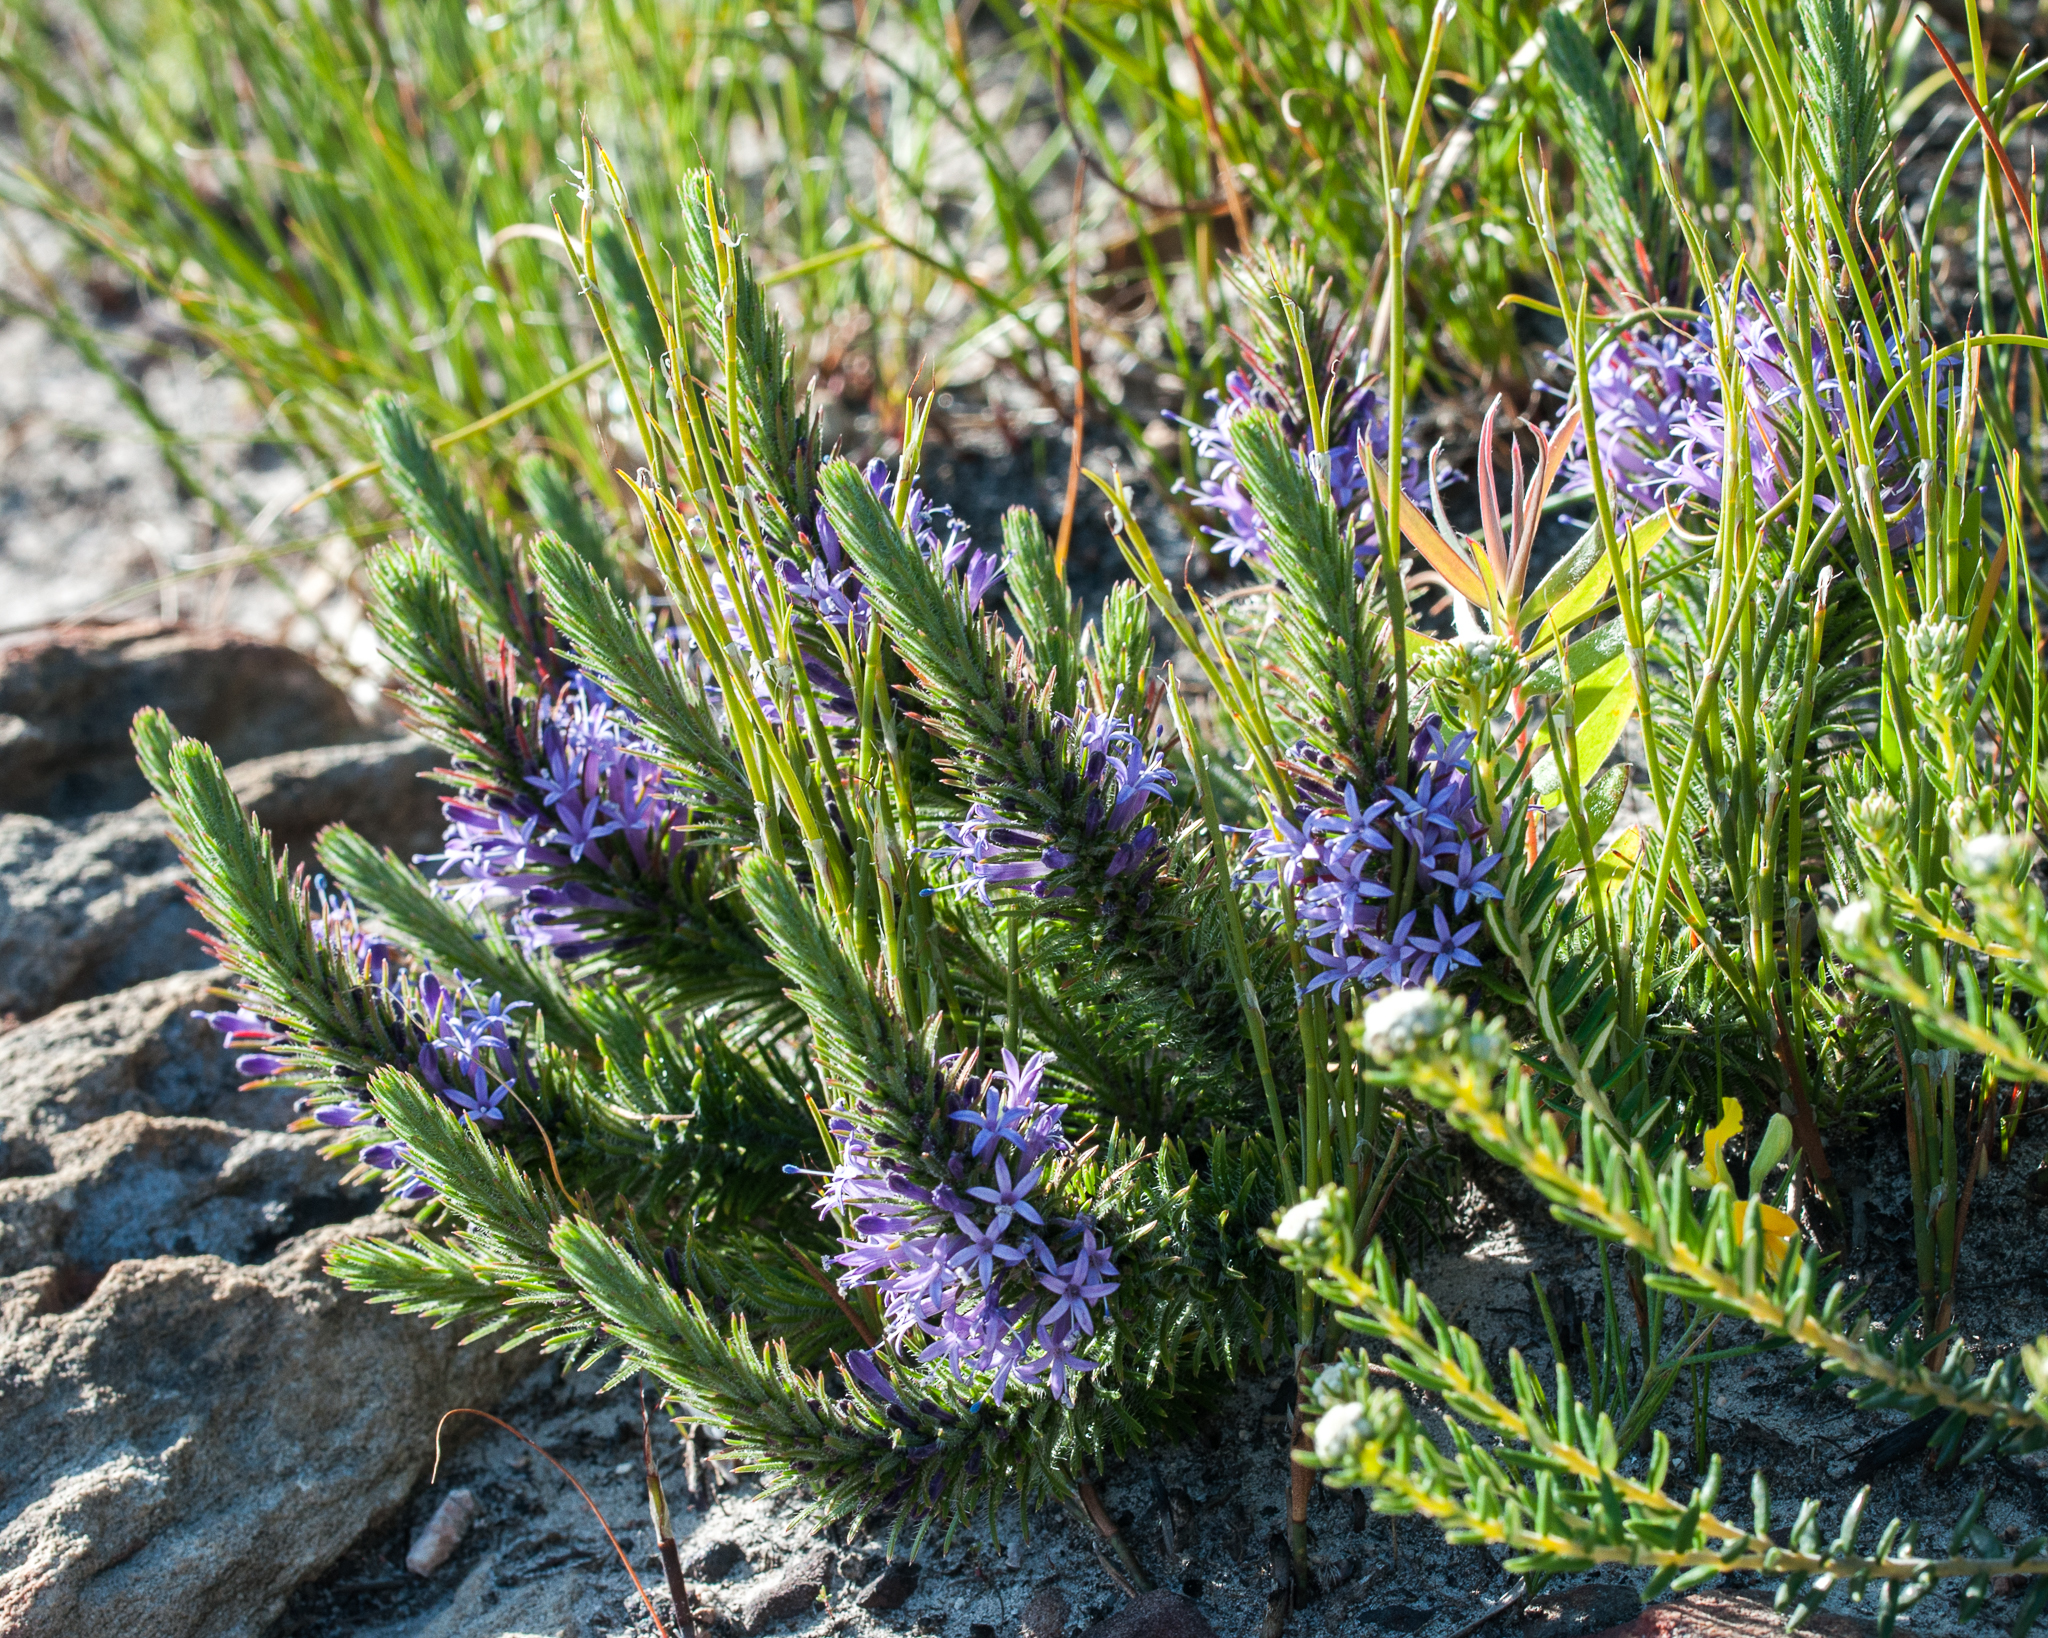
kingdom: Plantae
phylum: Tracheophyta
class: Magnoliopsida
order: Asterales
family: Campanulaceae
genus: Merciera
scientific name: Merciera tenuifolia
